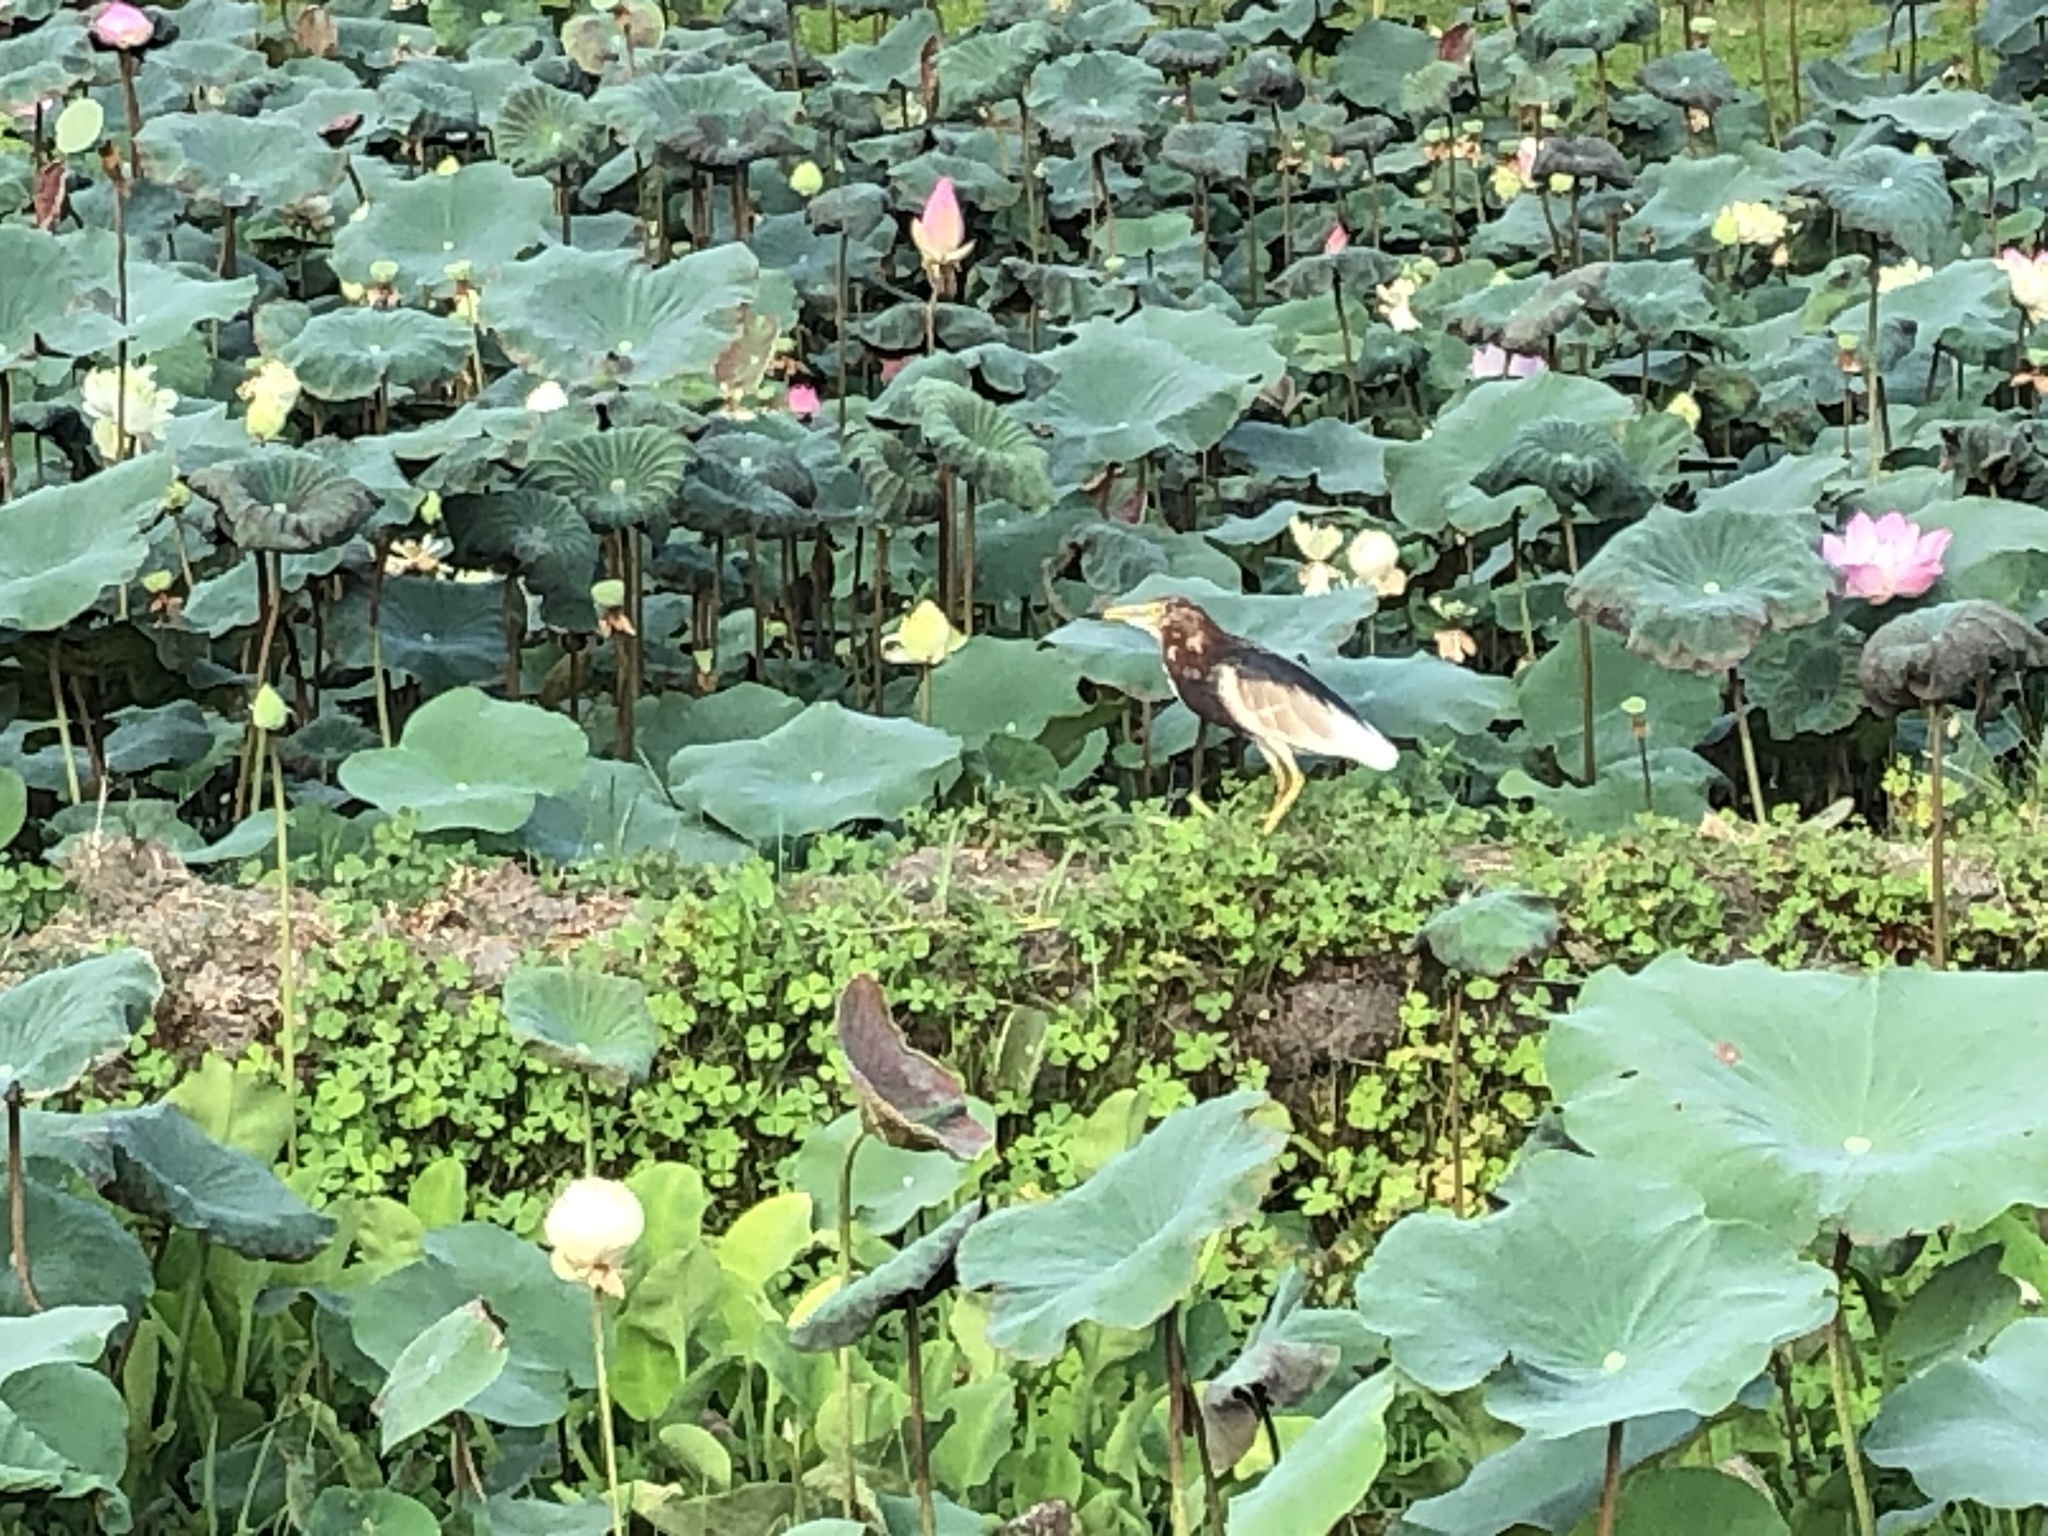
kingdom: Animalia
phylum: Chordata
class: Aves
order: Pelecaniformes
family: Ardeidae
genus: Ardeola
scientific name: Ardeola bacchus
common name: Chinese pond heron
